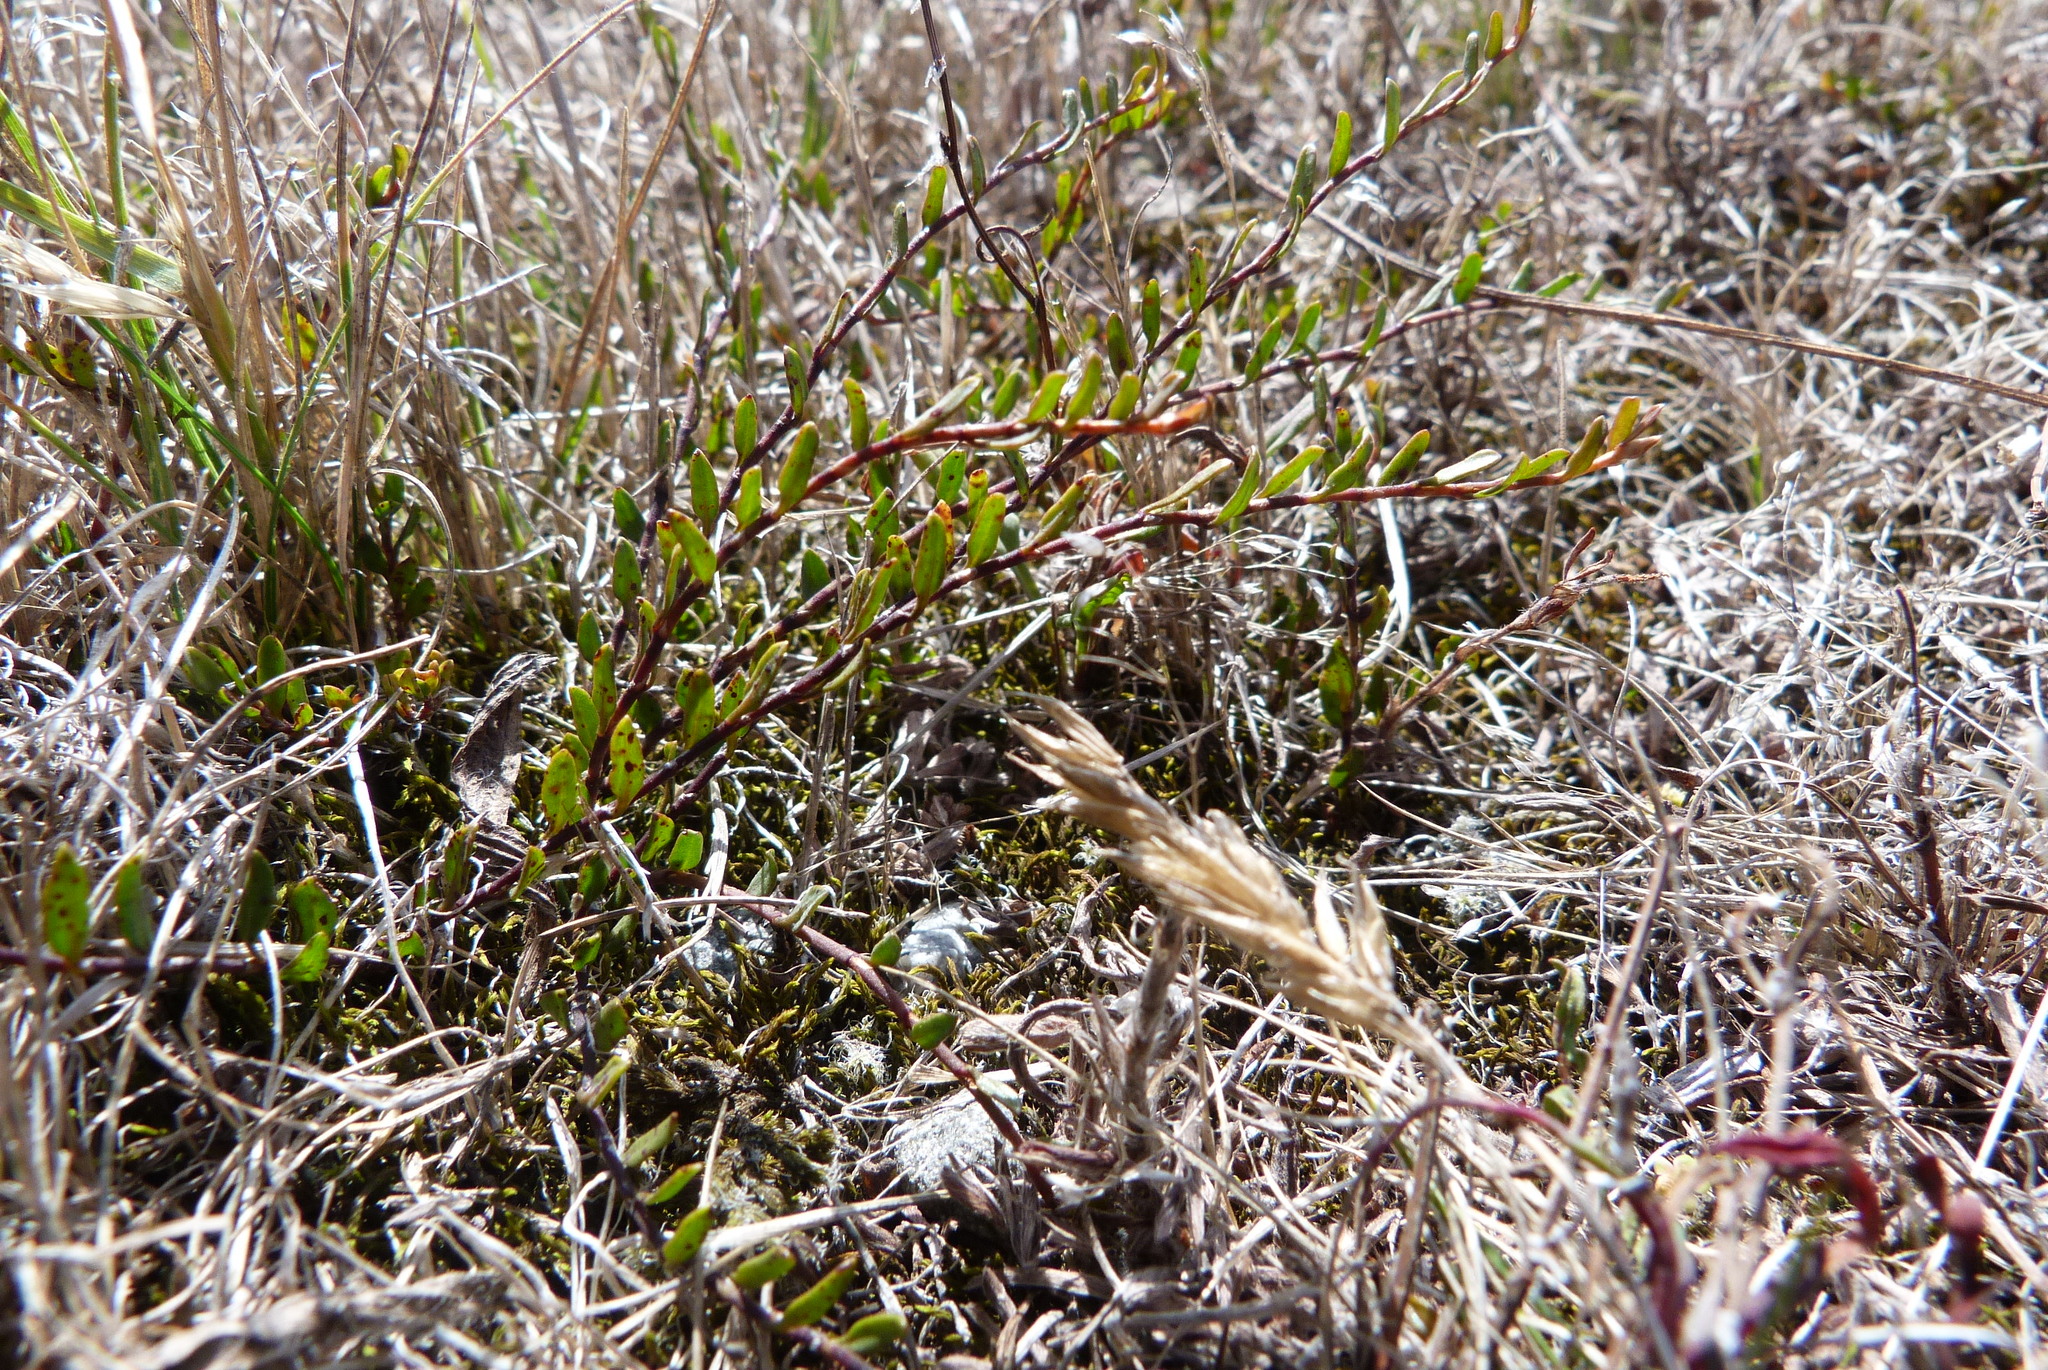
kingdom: Plantae
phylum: Tracheophyta
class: Magnoliopsida
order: Caryophyllales
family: Polygonaceae
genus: Muehlenbeckia
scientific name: Muehlenbeckia
